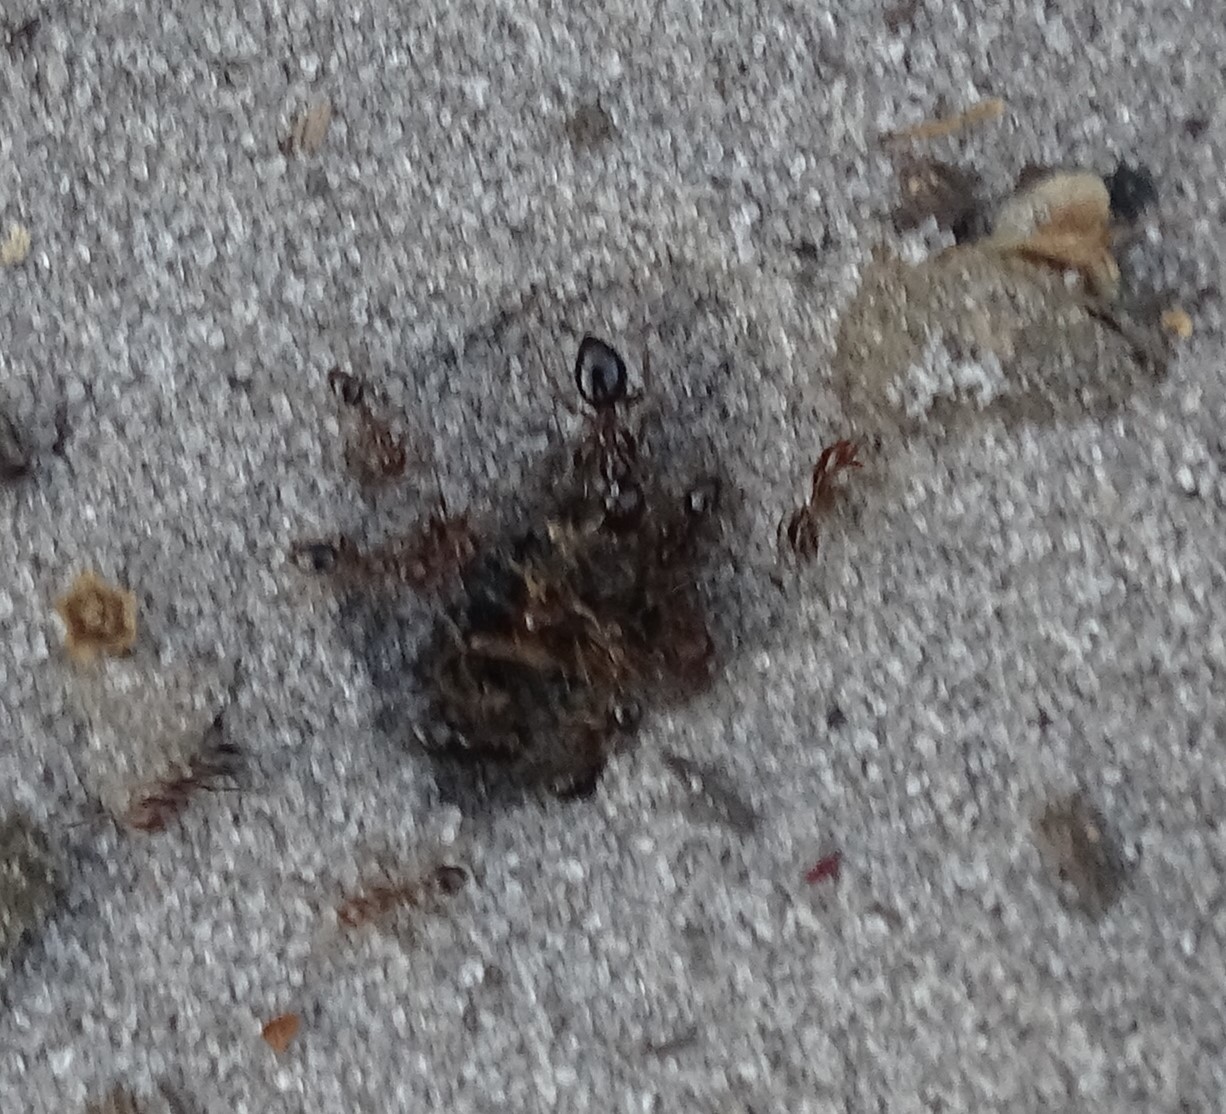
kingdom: Animalia
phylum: Arthropoda
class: Insecta
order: Hymenoptera
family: Formicidae
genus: Solenopsis
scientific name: Solenopsis invicta
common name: Red imported fire ant
